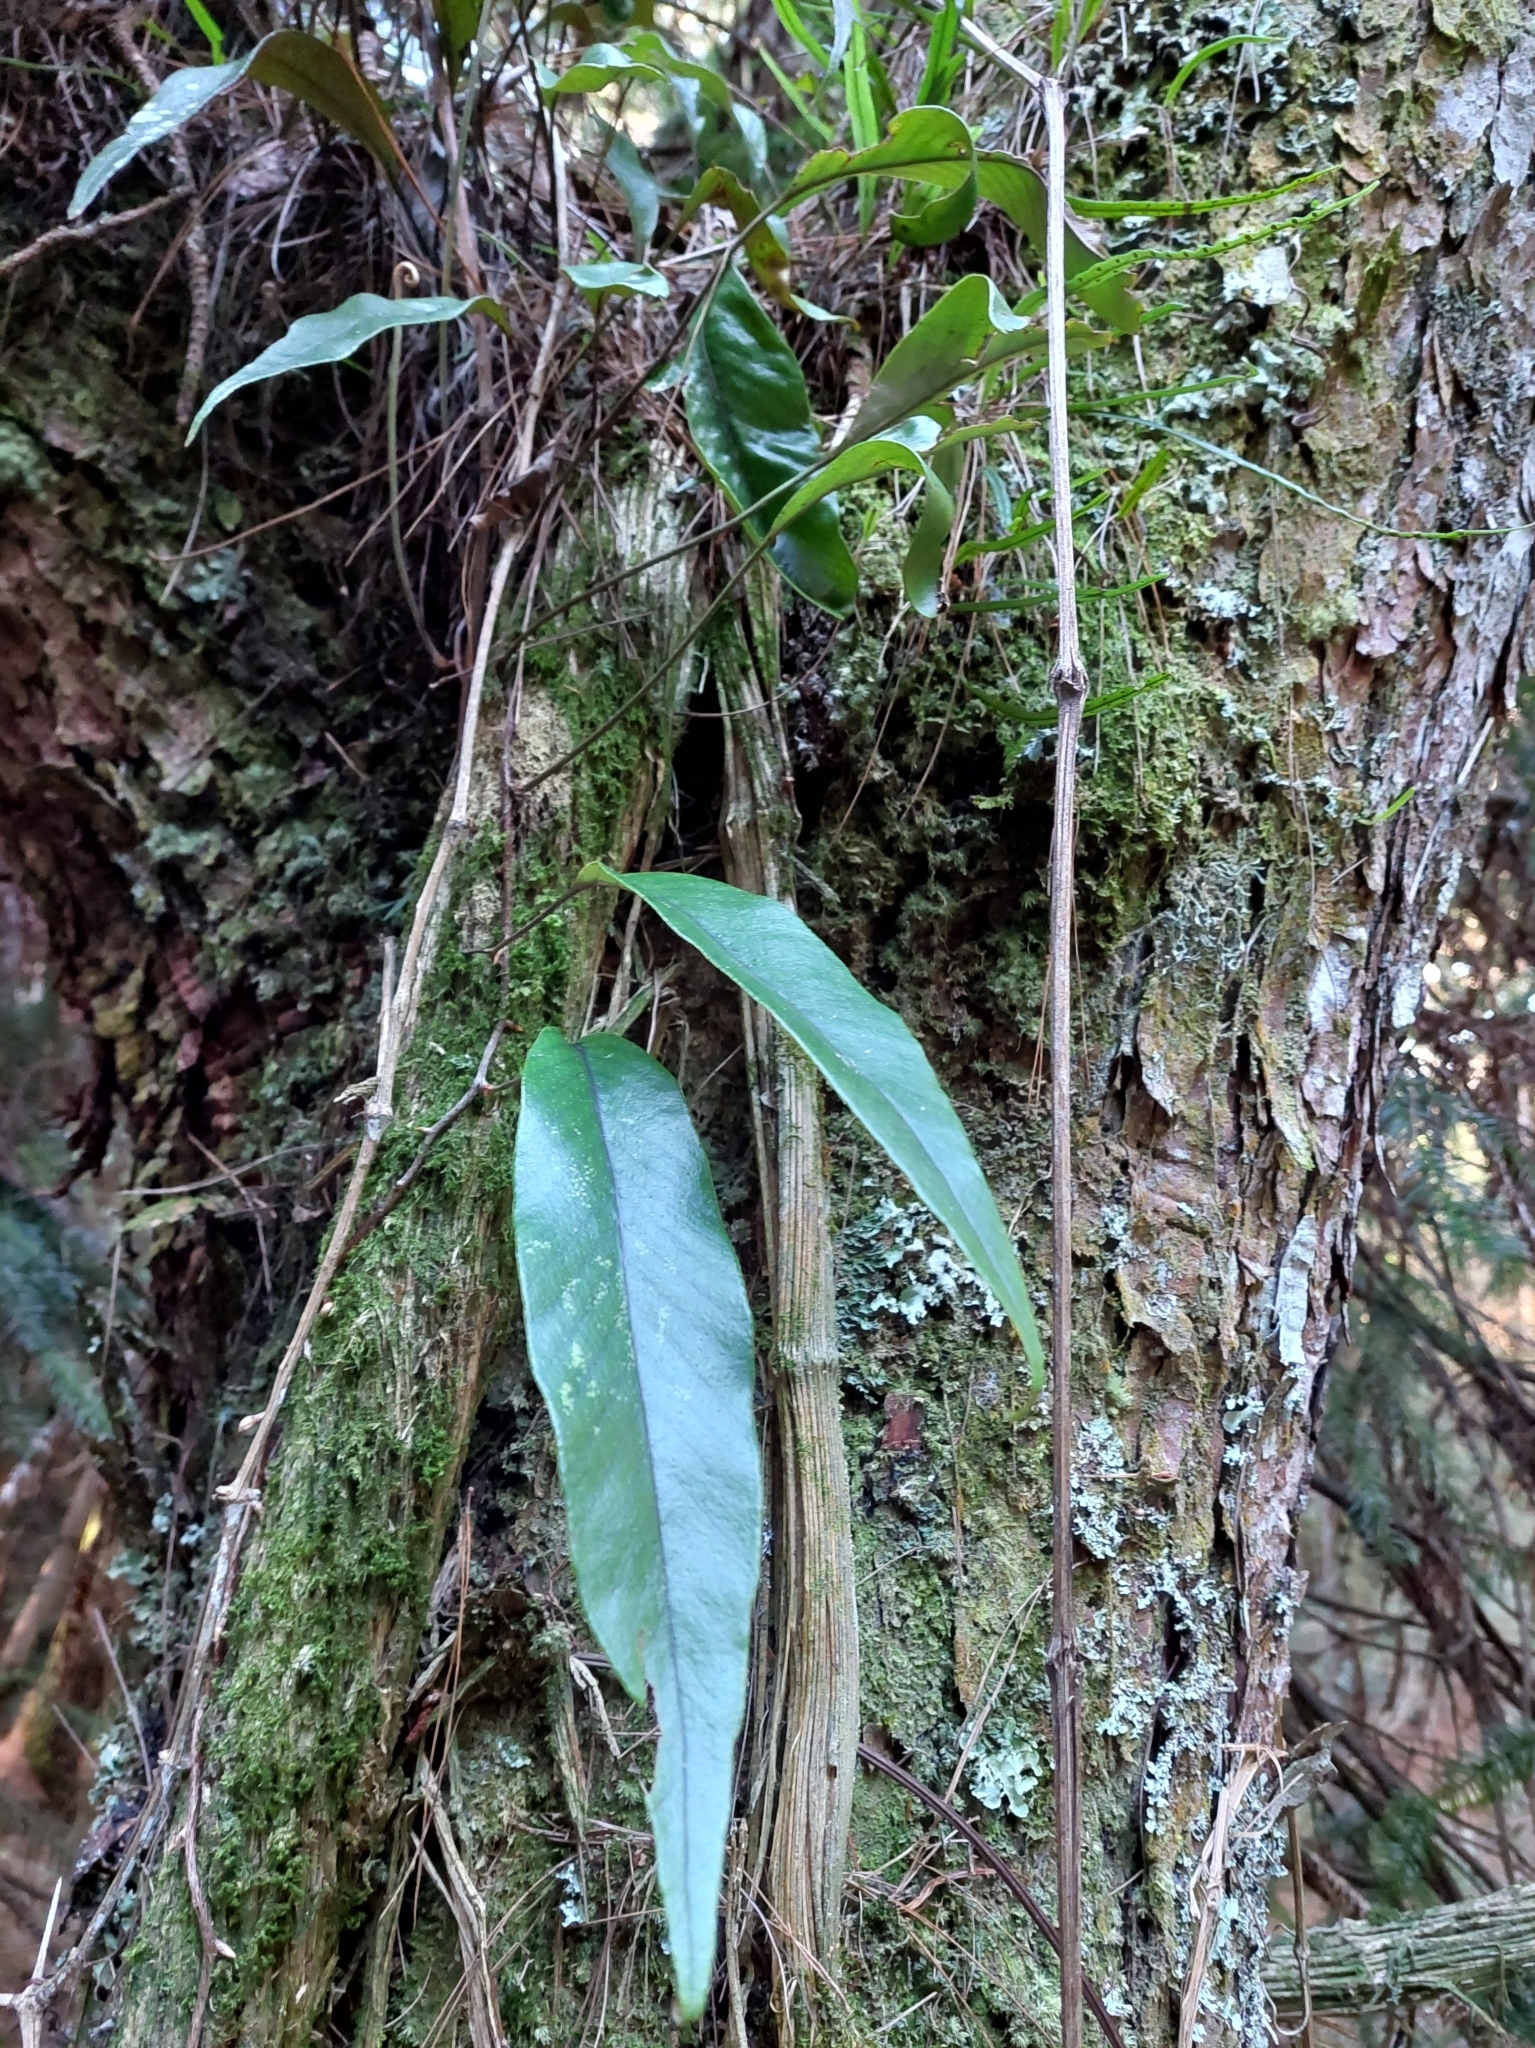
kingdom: Plantae
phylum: Tracheophyta
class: Polypodiopsida
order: Polypodiales
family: Polypodiaceae
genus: Pyrrosia
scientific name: Pyrrosia lingua
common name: Felt fern
